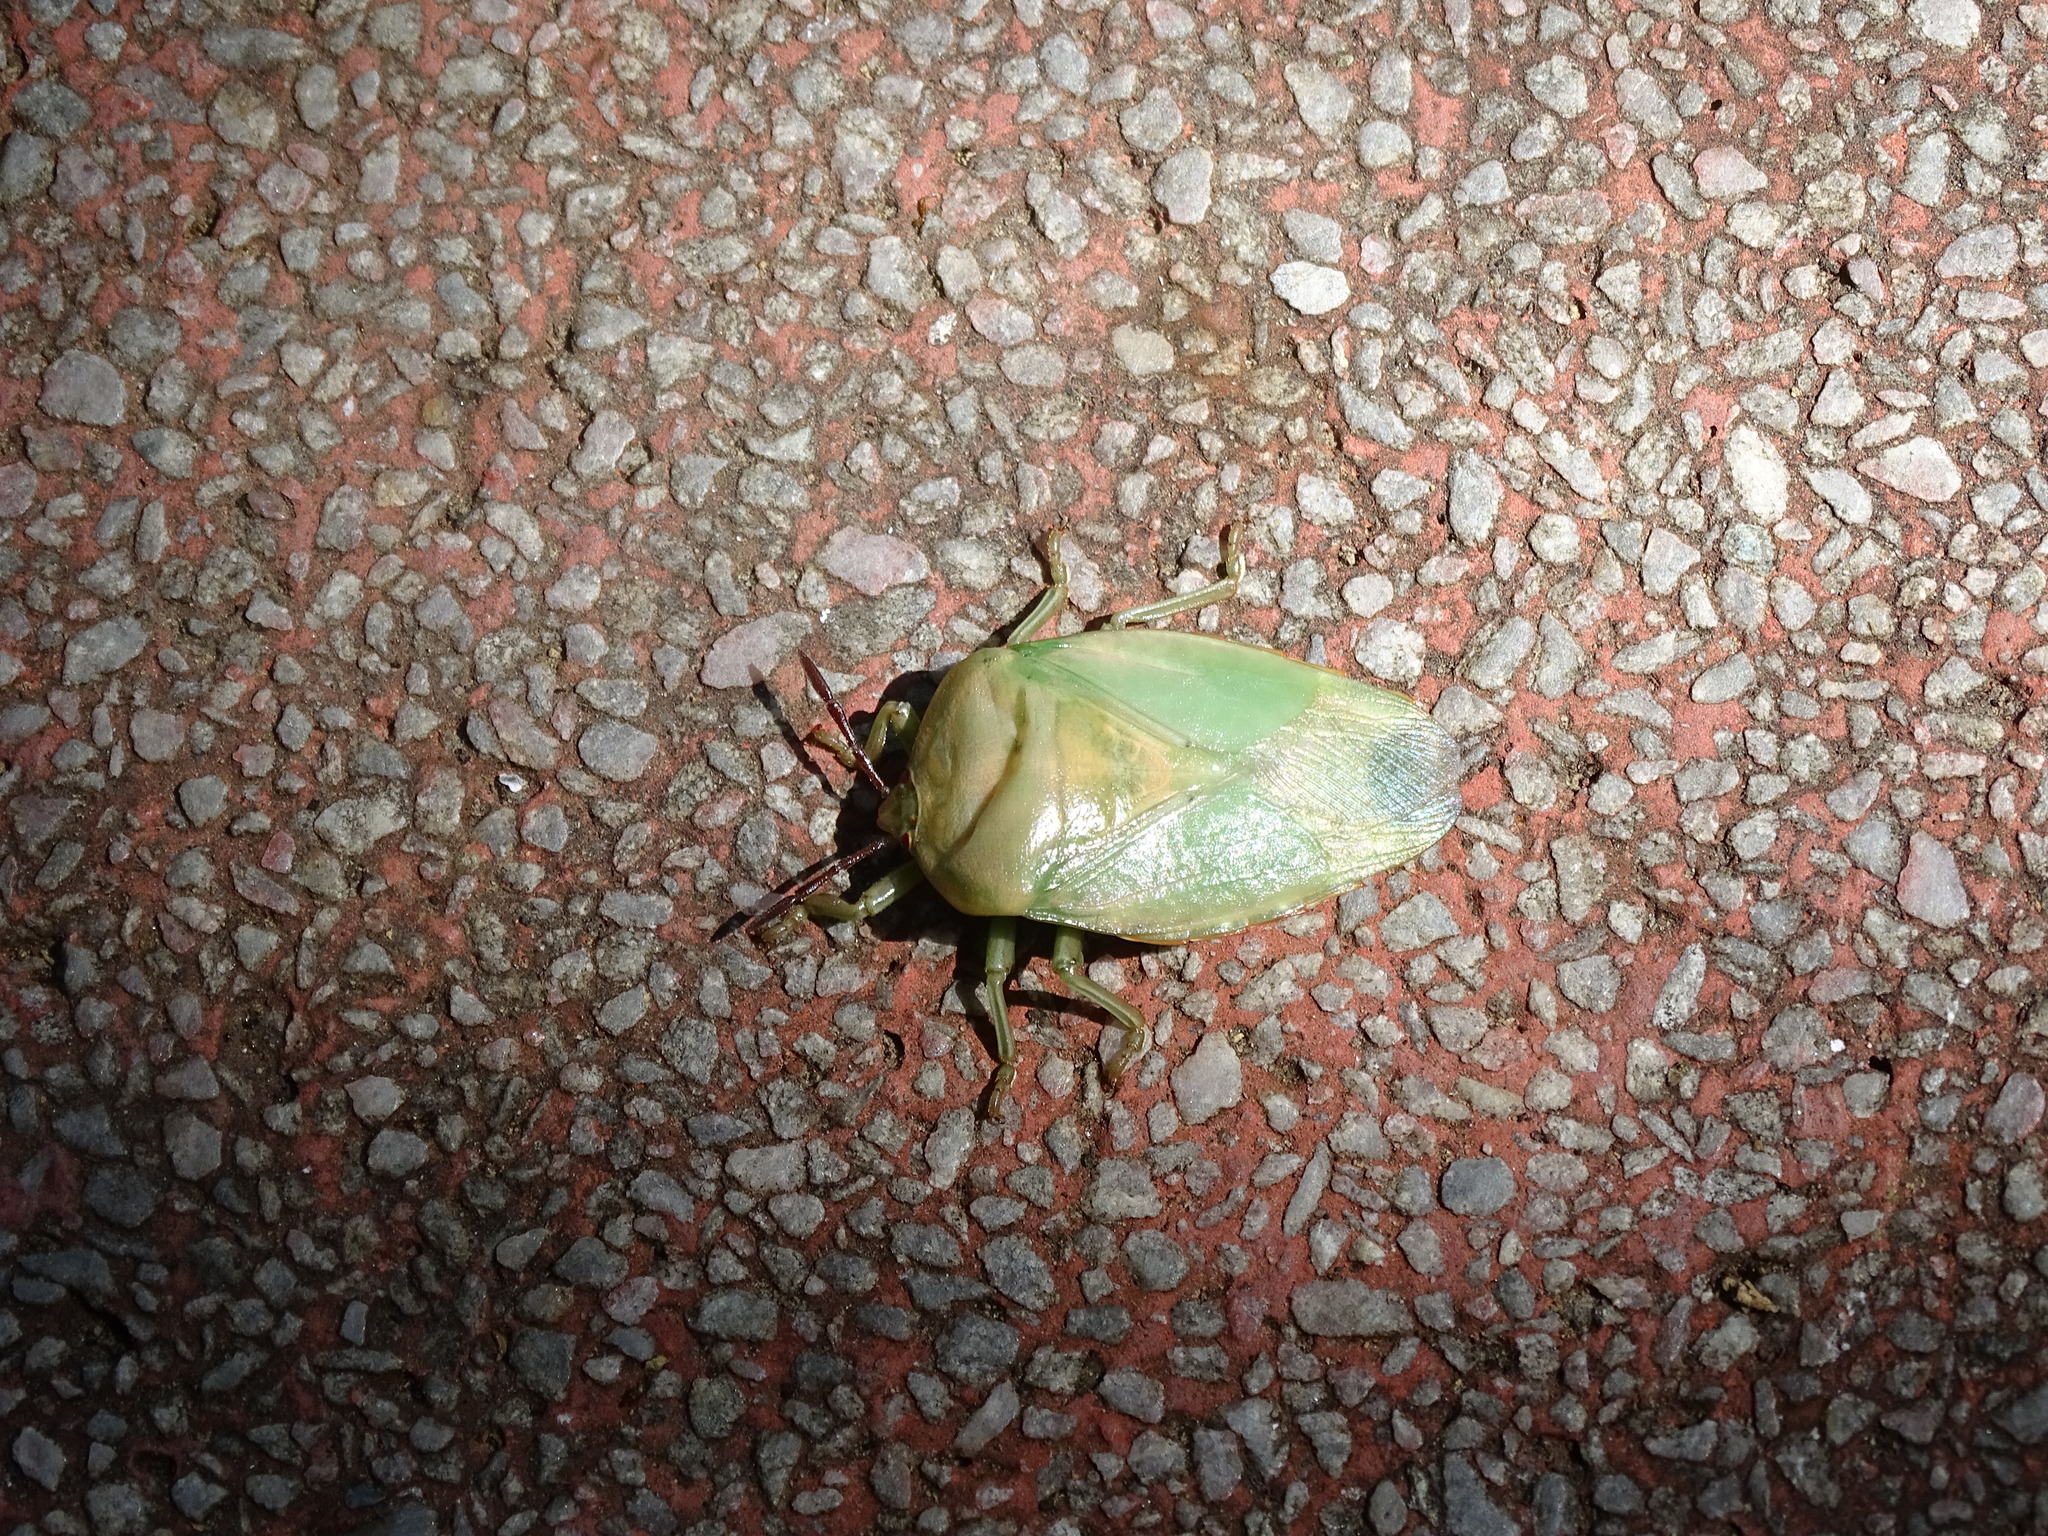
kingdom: Animalia
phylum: Arthropoda
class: Insecta
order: Hemiptera
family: Tessaratomidae
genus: Tessaratoma
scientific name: Tessaratoma papillosa
